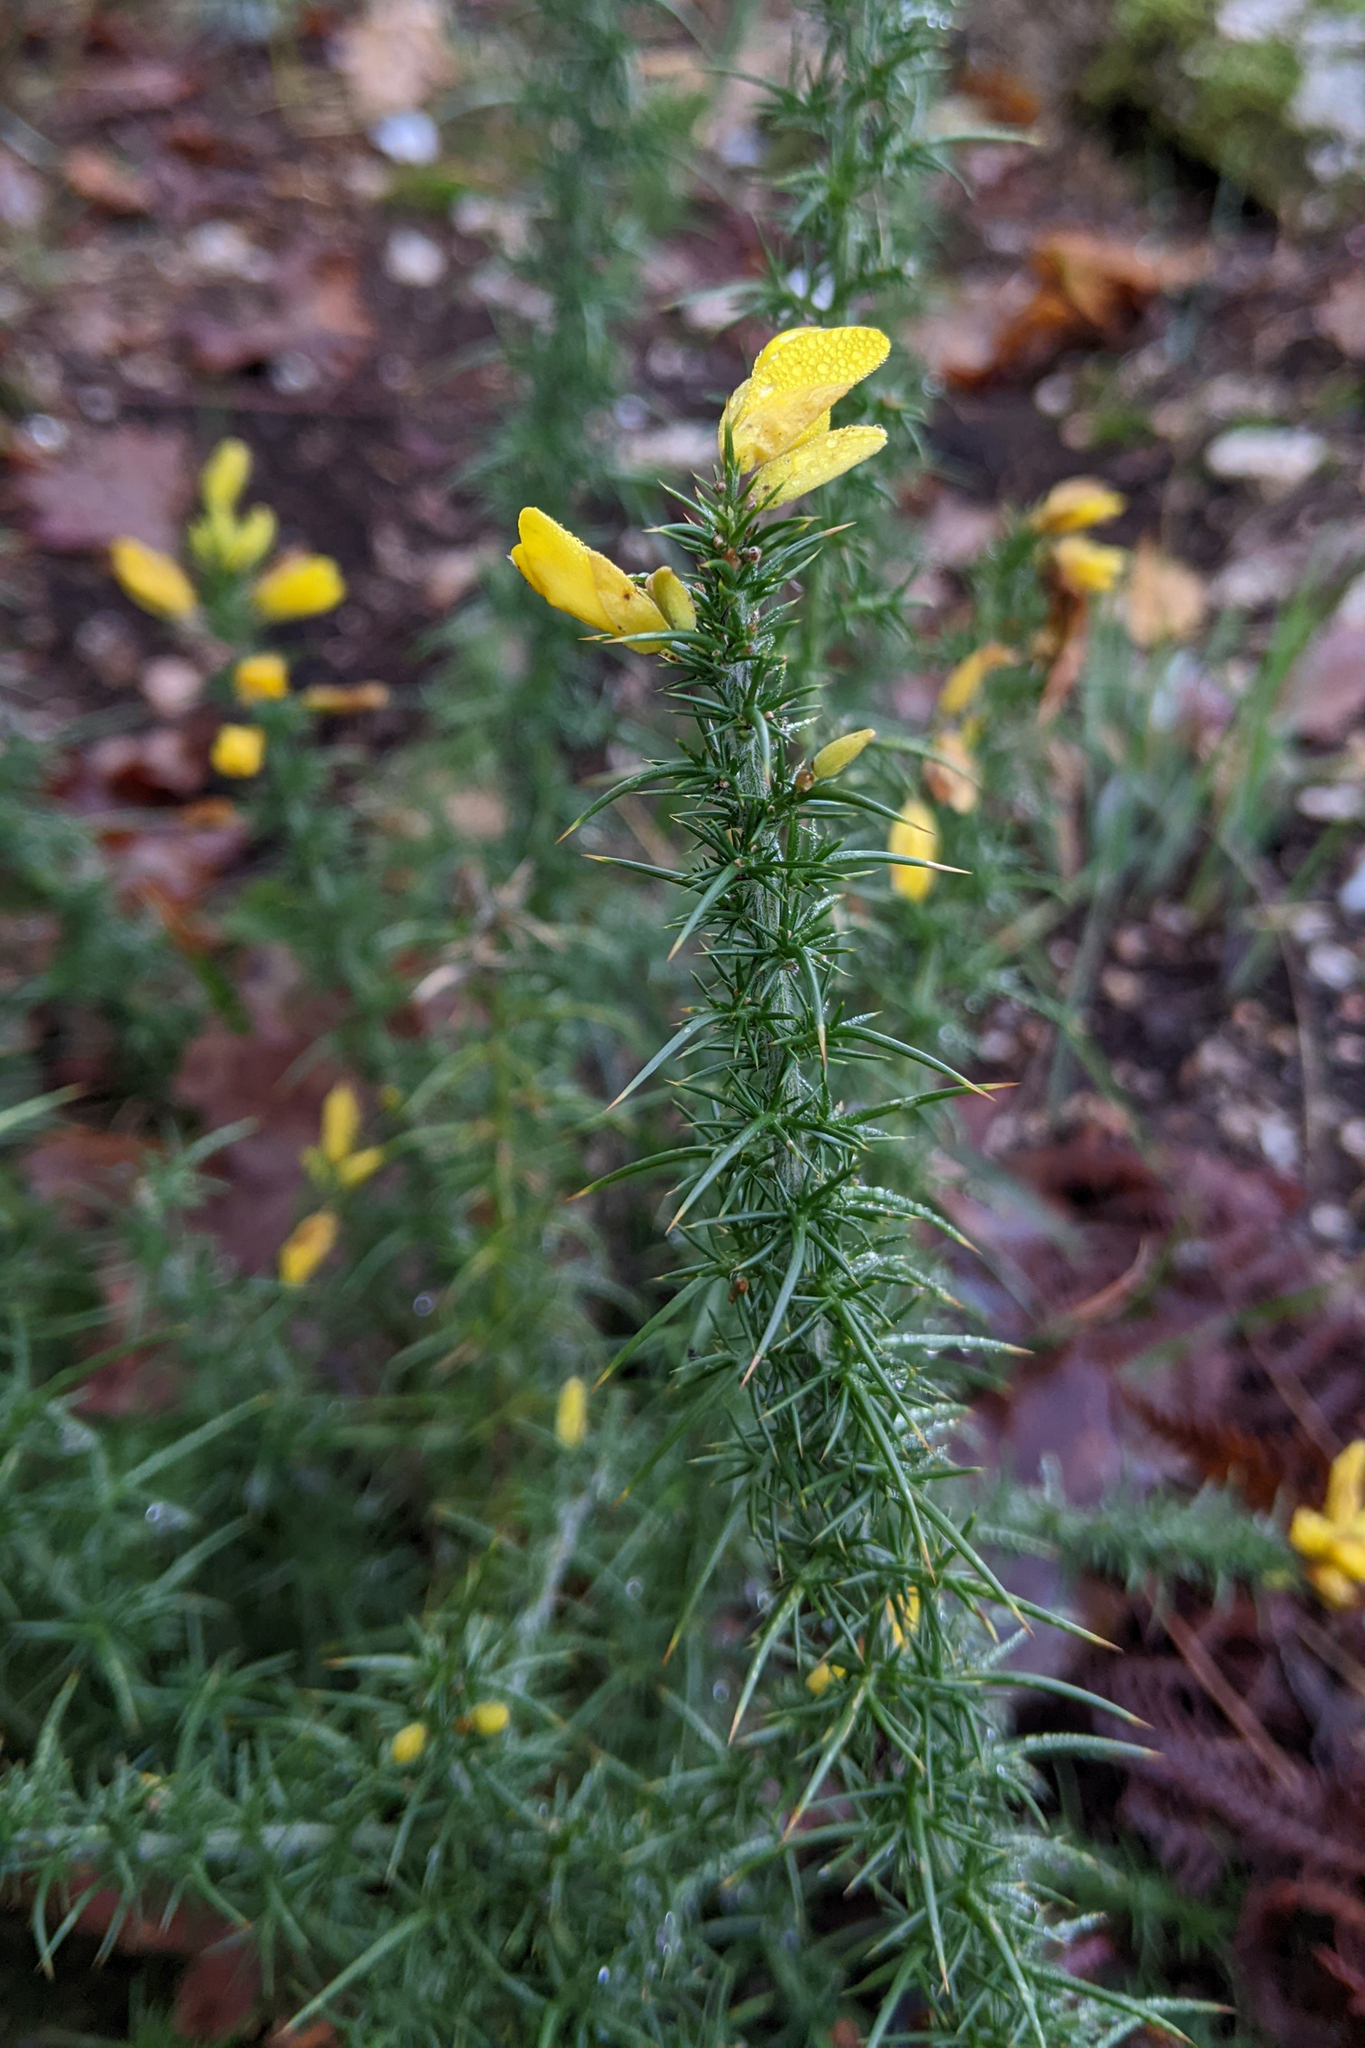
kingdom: Plantae
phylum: Tracheophyta
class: Magnoliopsida
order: Fabales
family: Fabaceae
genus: Ulex
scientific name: Ulex minor
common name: Dwarf gorse
